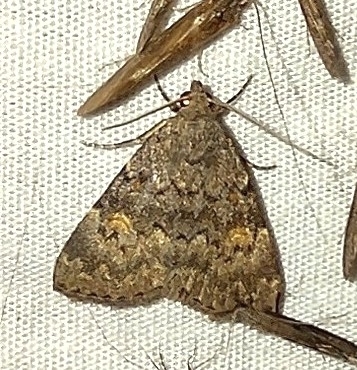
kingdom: Animalia
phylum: Arthropoda
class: Insecta
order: Lepidoptera
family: Erebidae
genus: Idia
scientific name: Idia aemula
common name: Common idia moth
